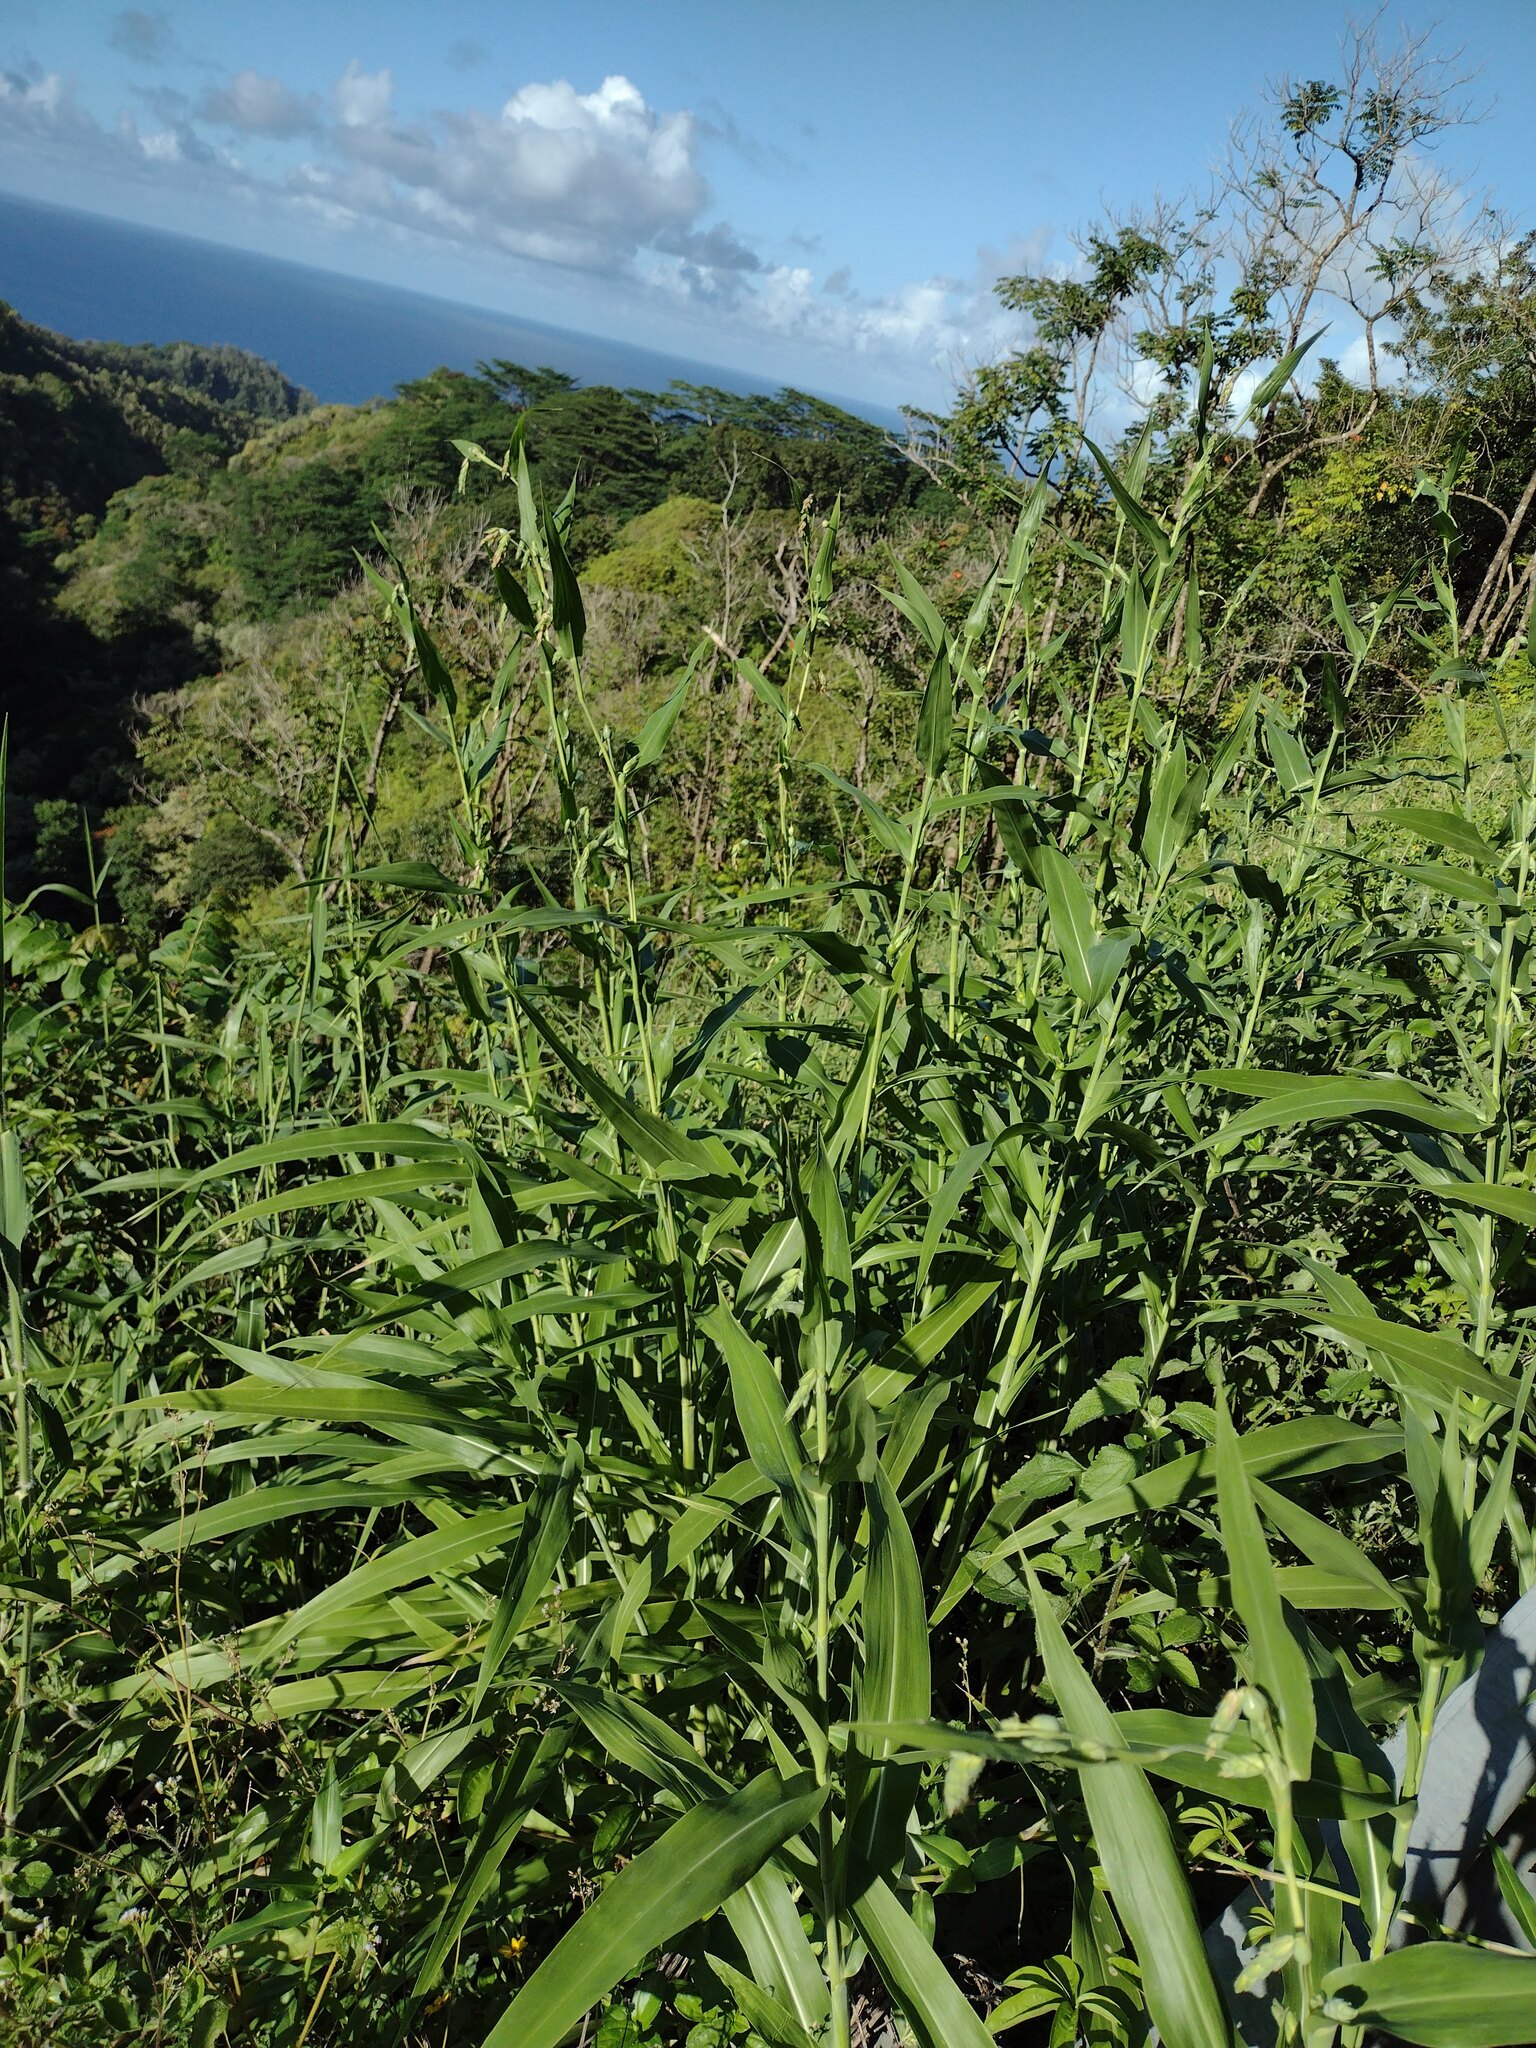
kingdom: Plantae
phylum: Tracheophyta
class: Liliopsida
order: Poales
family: Poaceae
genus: Coix
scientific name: Coix lacryma-jobi
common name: Job's tears
